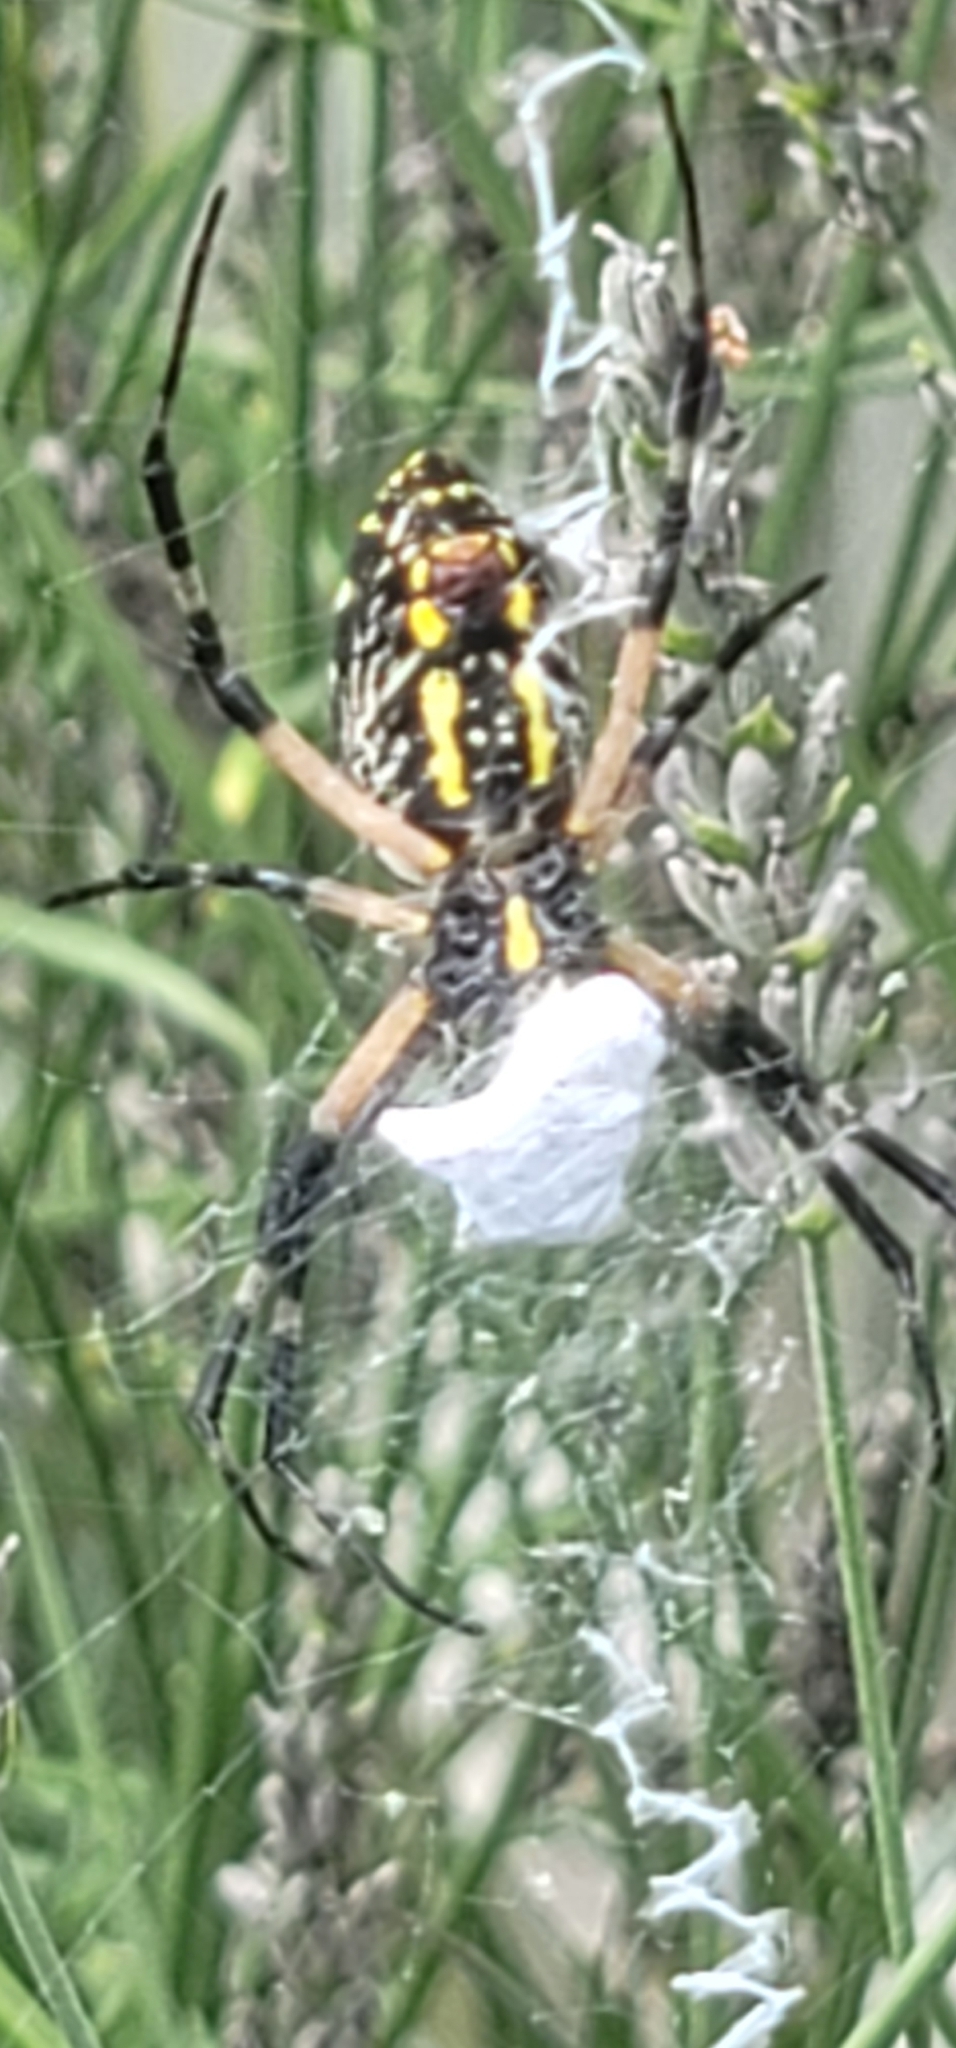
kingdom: Animalia
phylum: Arthropoda
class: Arachnida
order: Araneae
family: Araneidae
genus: Argiope
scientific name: Argiope aurantia
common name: Orb weavers
